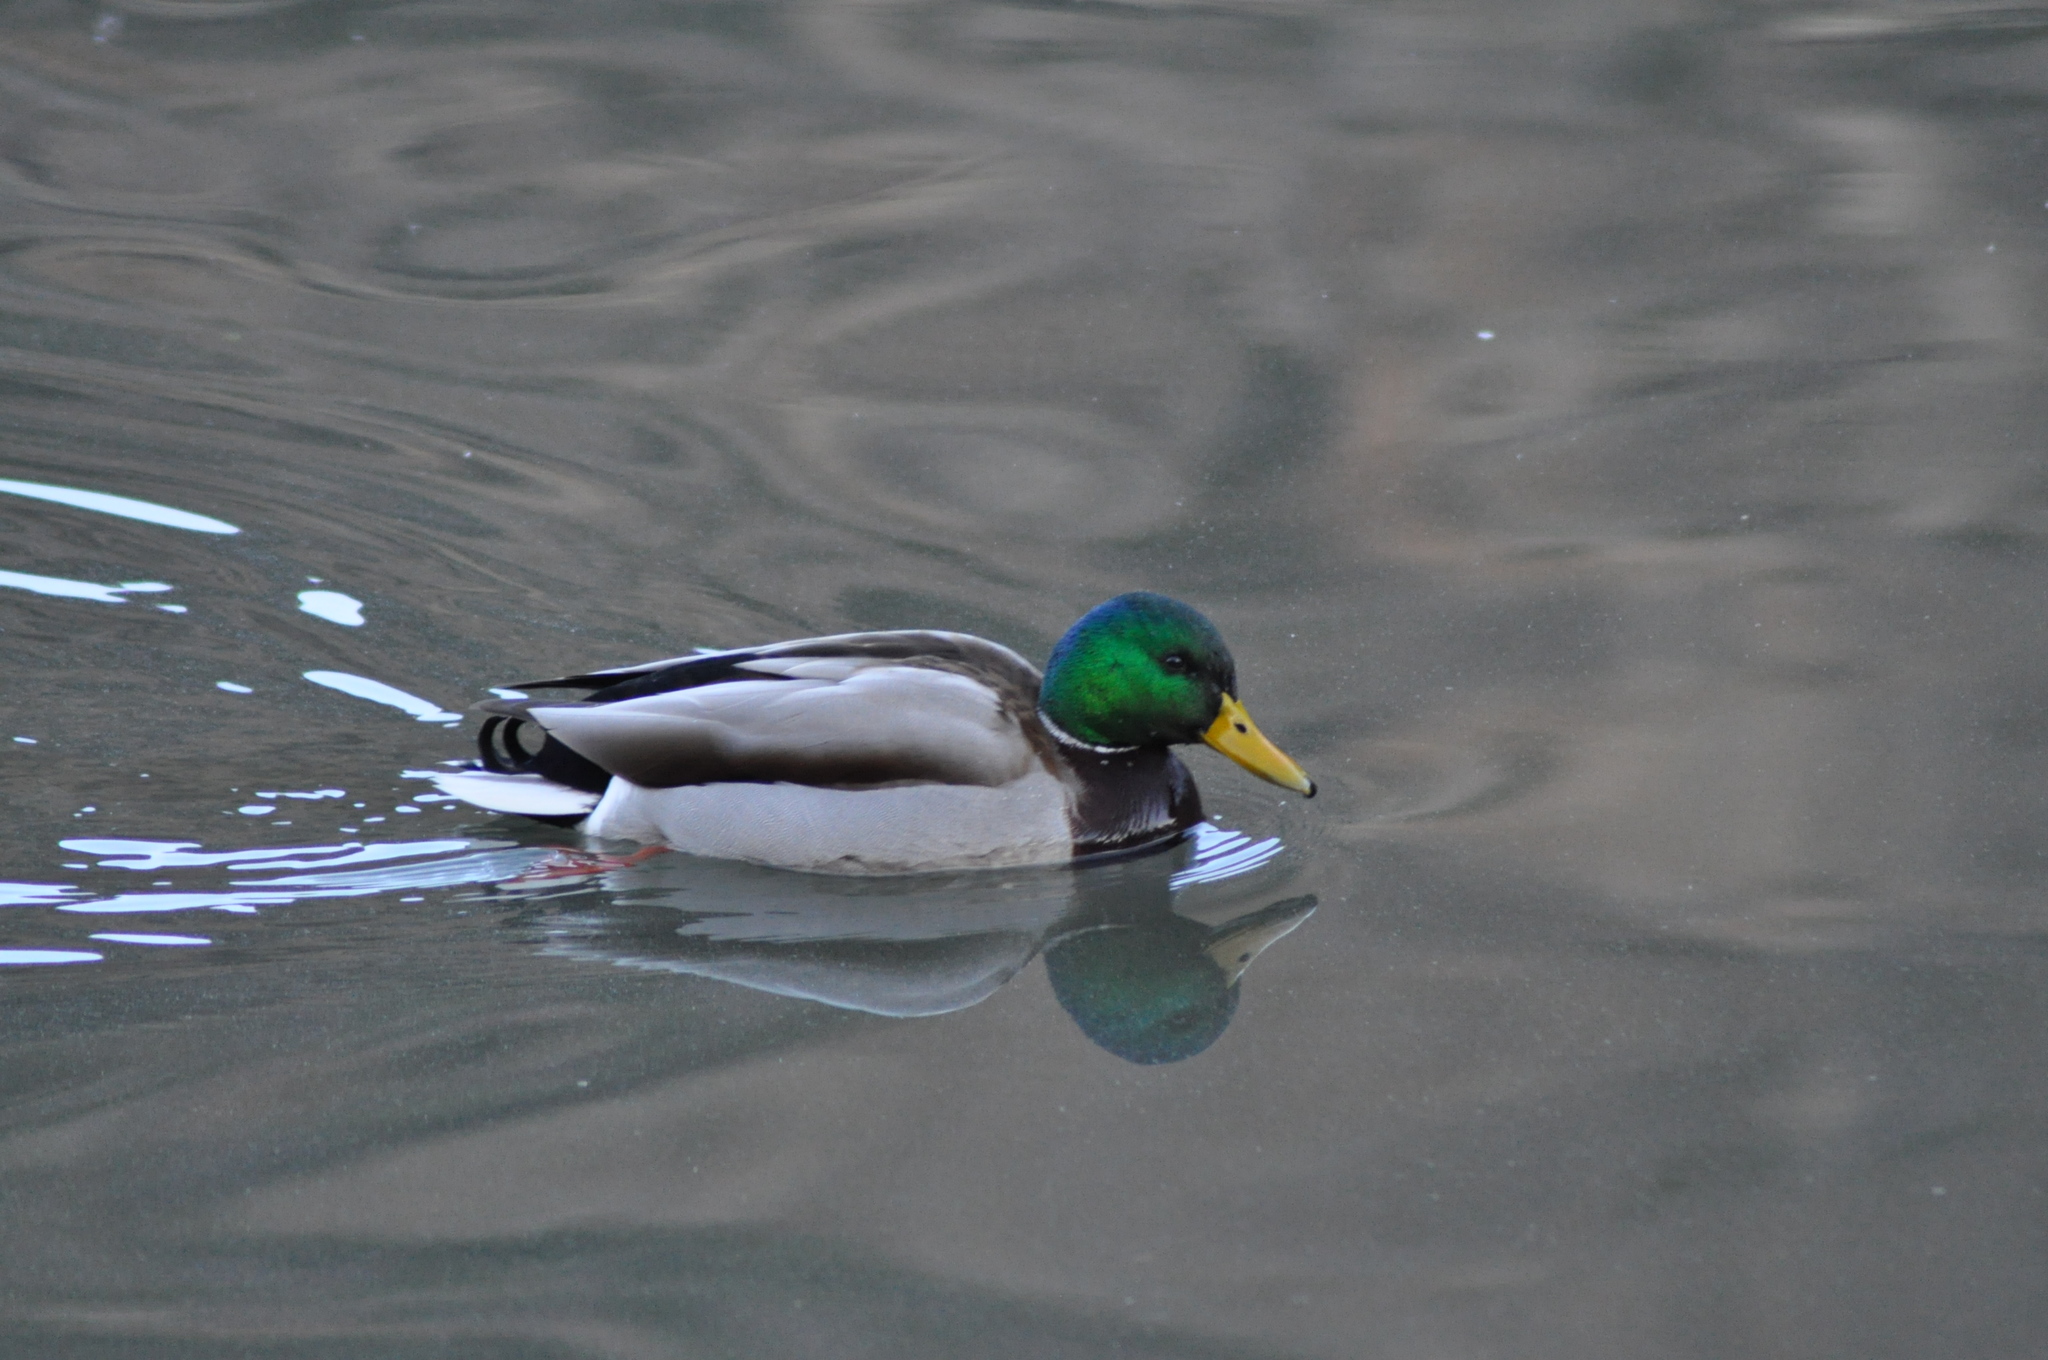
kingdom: Animalia
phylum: Chordata
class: Aves
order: Anseriformes
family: Anatidae
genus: Anas
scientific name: Anas platyrhynchos
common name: Mallard
